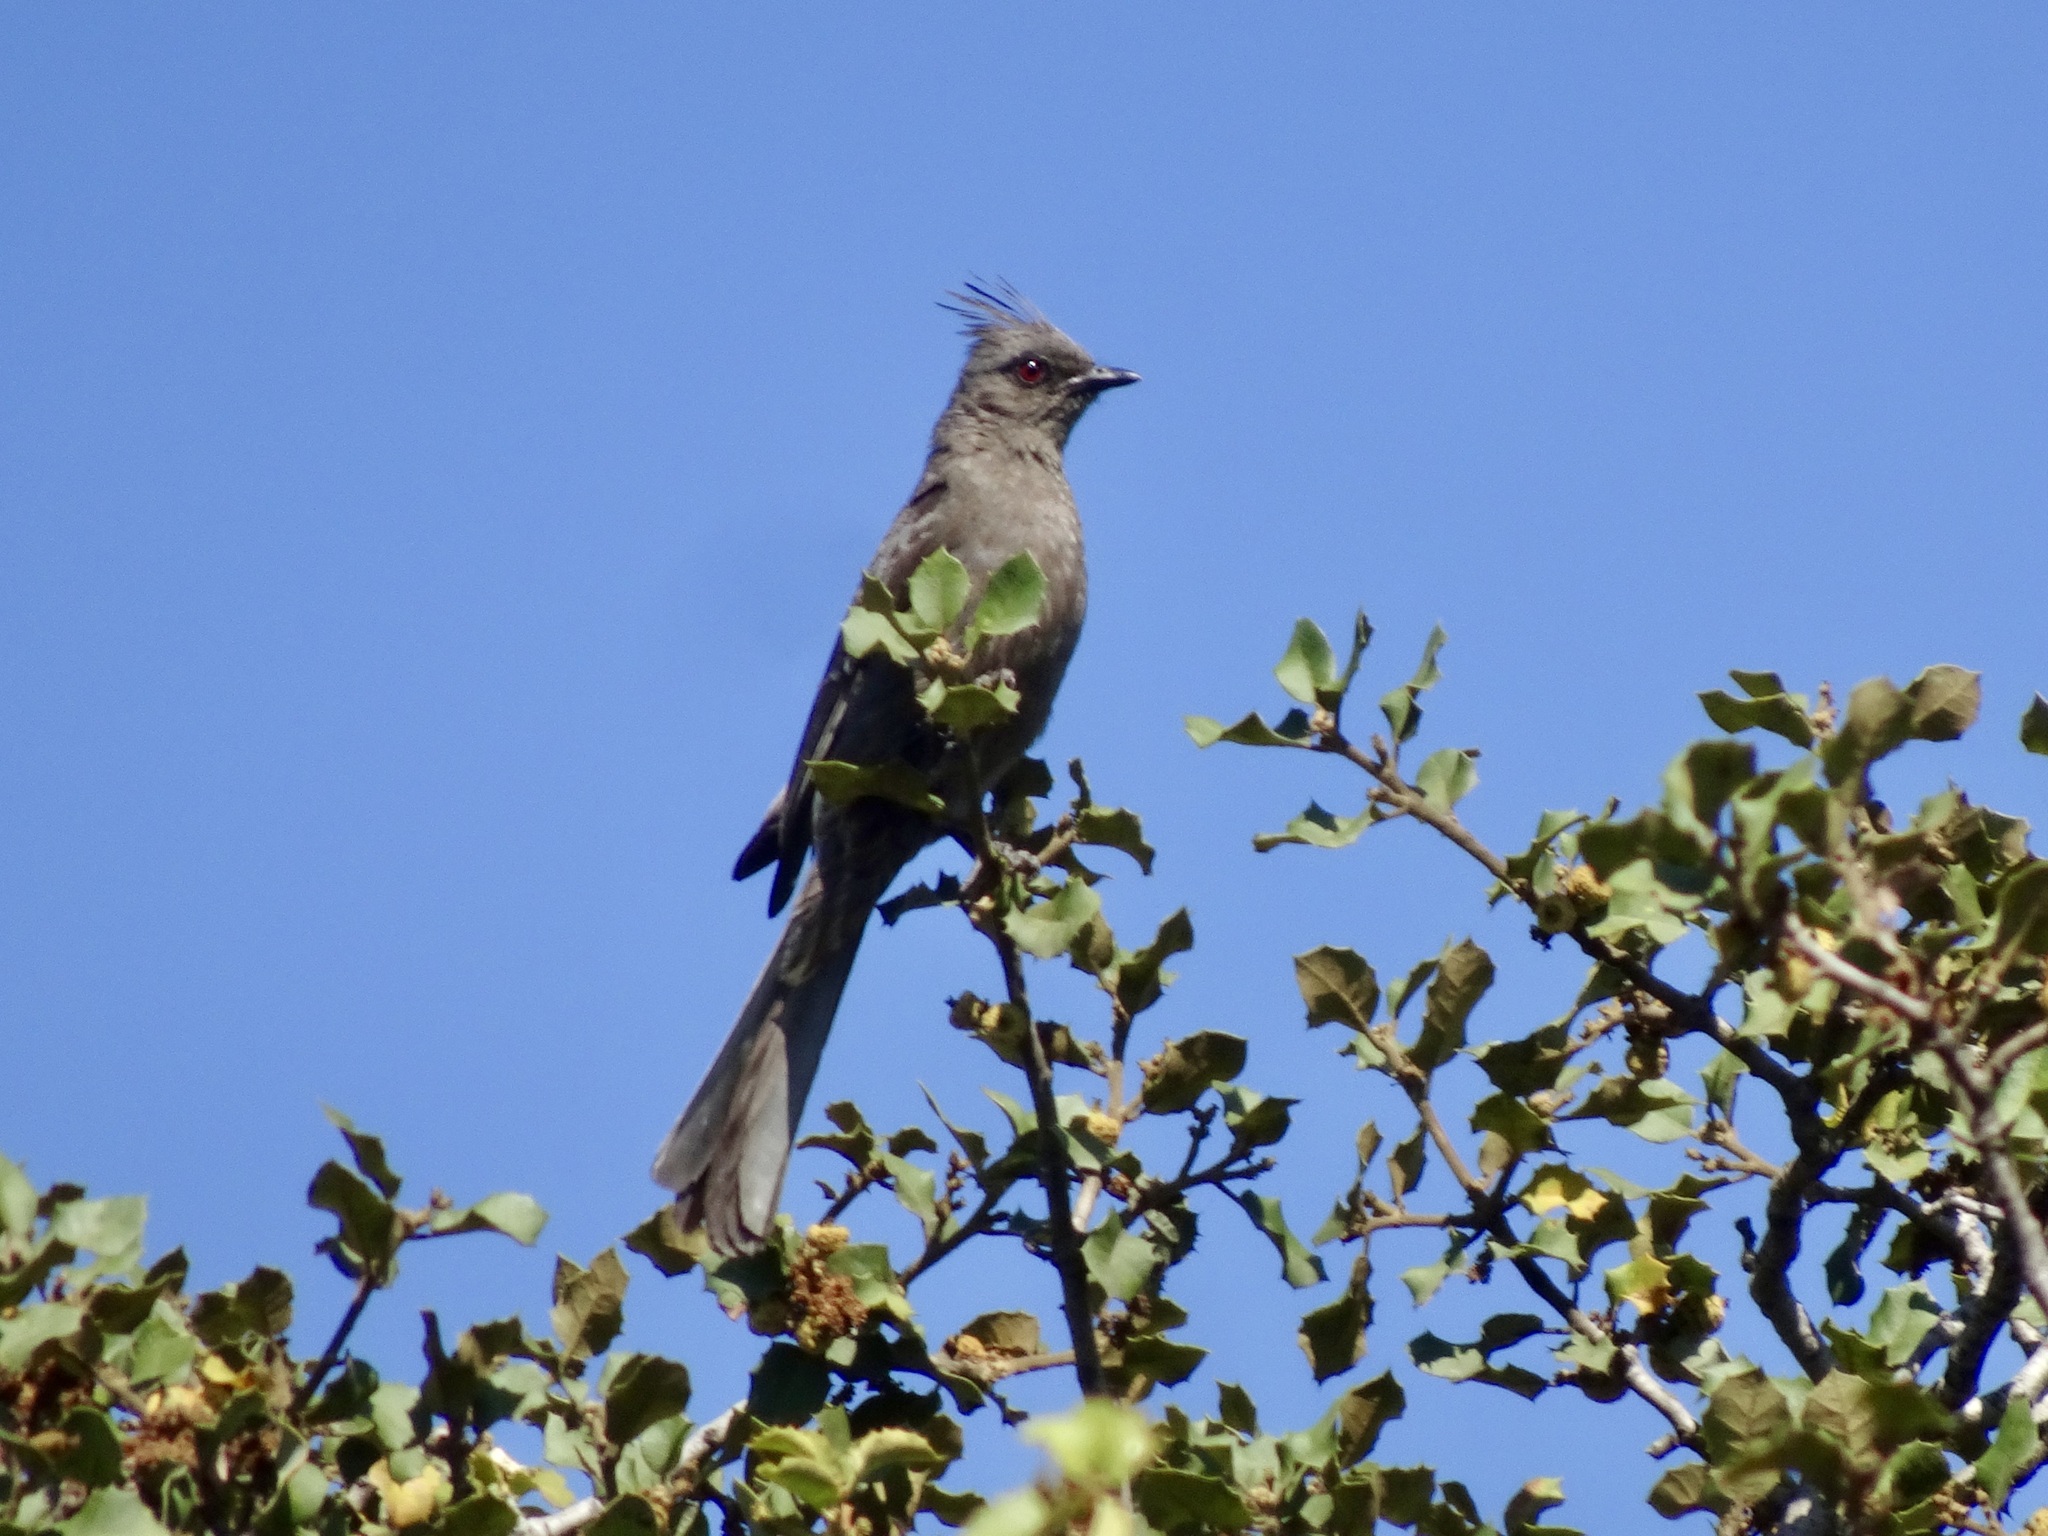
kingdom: Animalia
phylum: Chordata
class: Aves
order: Passeriformes
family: Ptilogonatidae
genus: Phainopepla
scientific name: Phainopepla nitens
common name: Phainopepla
